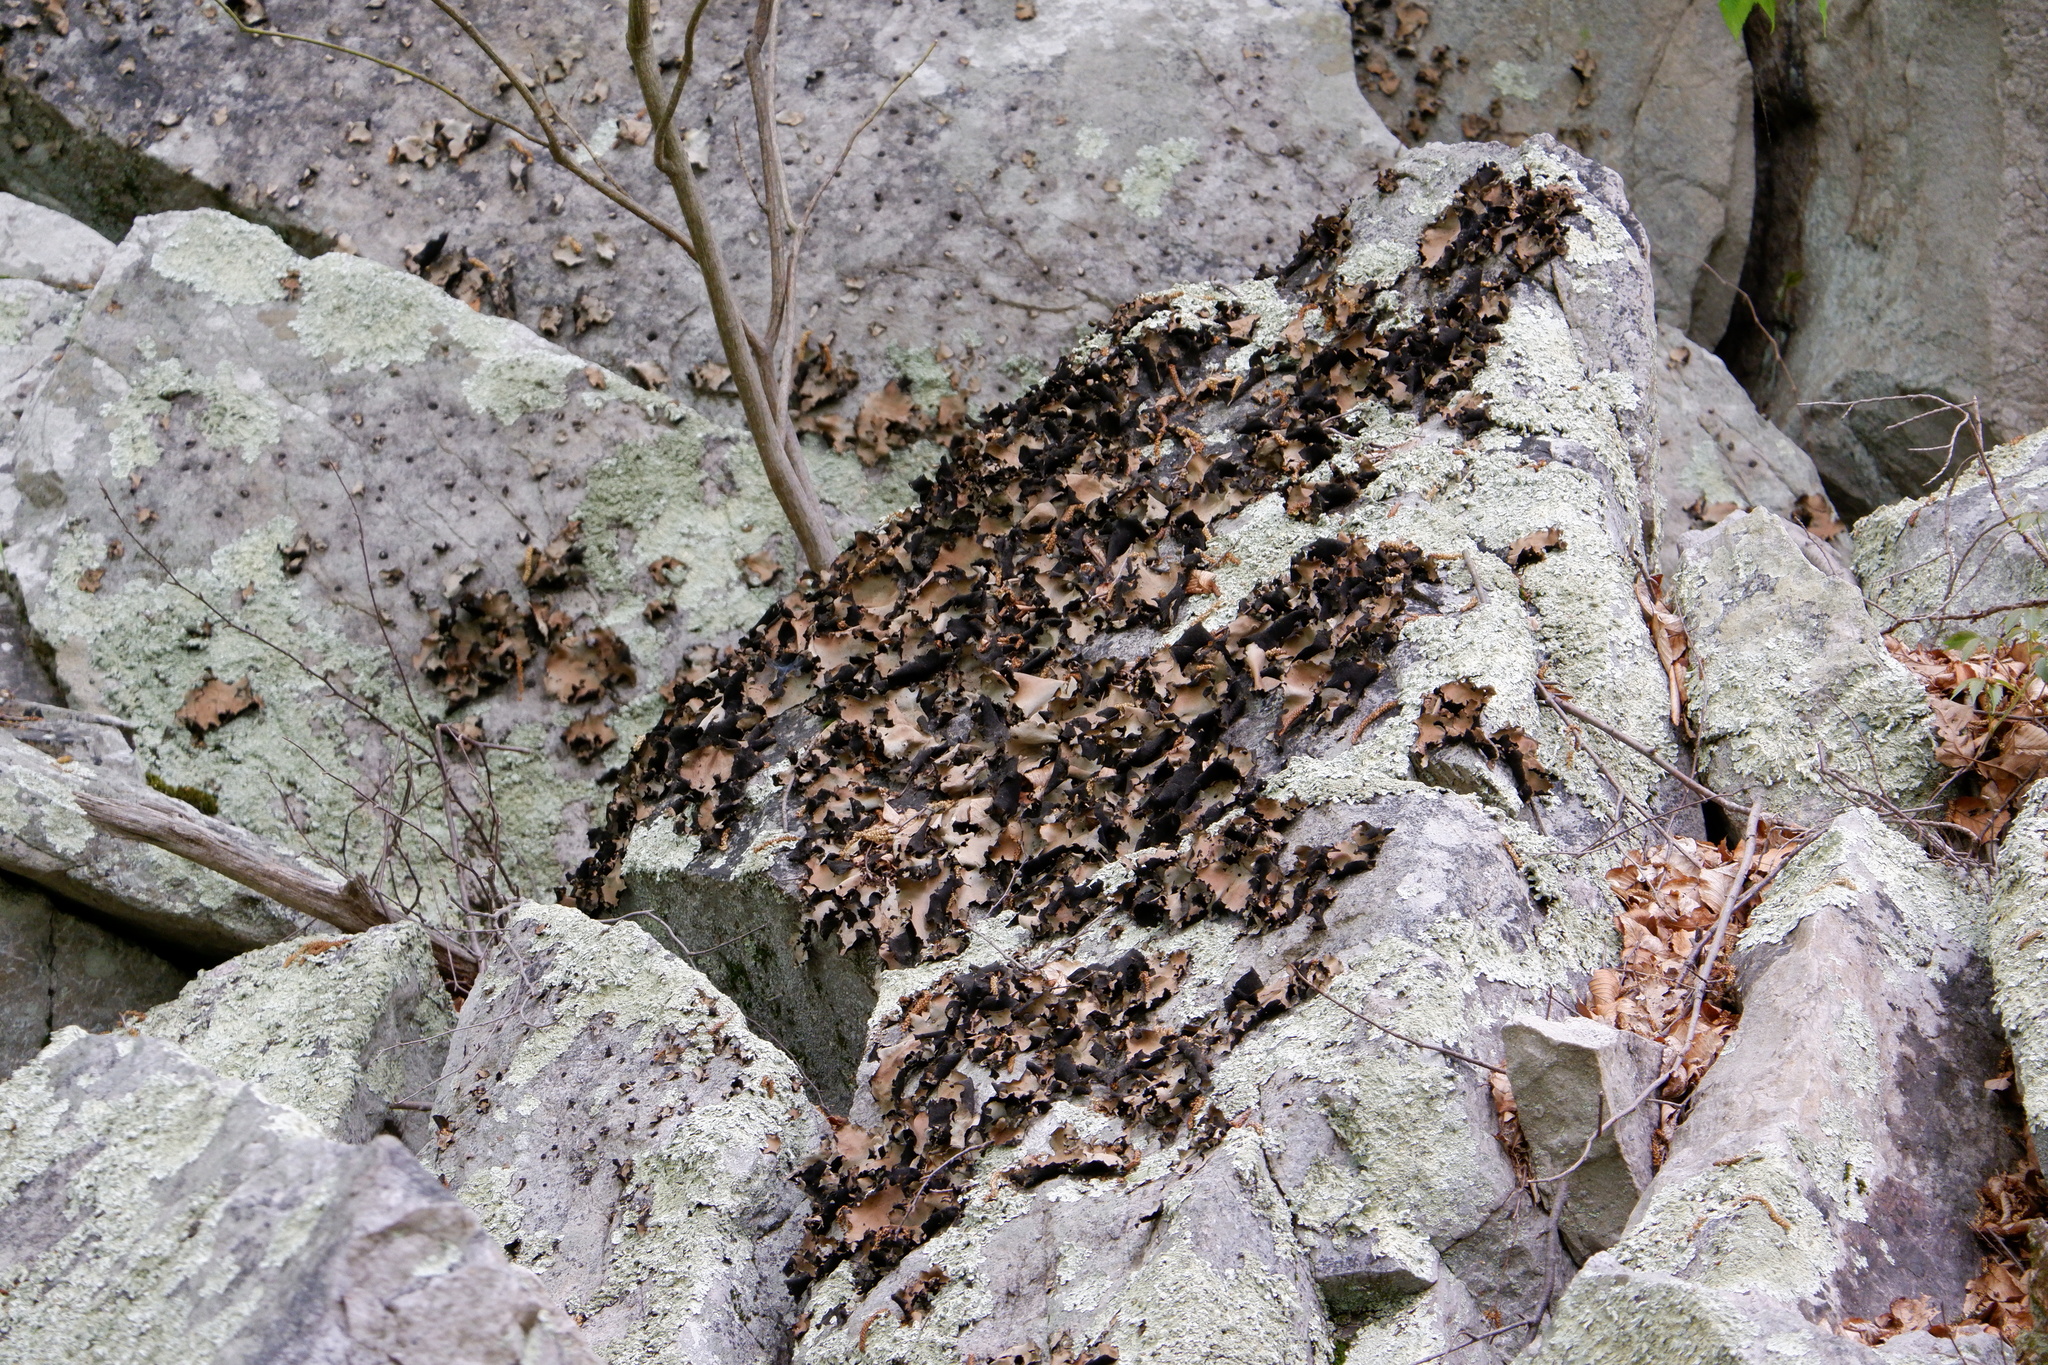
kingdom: Fungi
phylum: Ascomycota
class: Lecanoromycetes
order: Umbilicariales
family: Umbilicariaceae
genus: Umbilicaria
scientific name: Umbilicaria mammulata
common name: Smooth rock tripe
